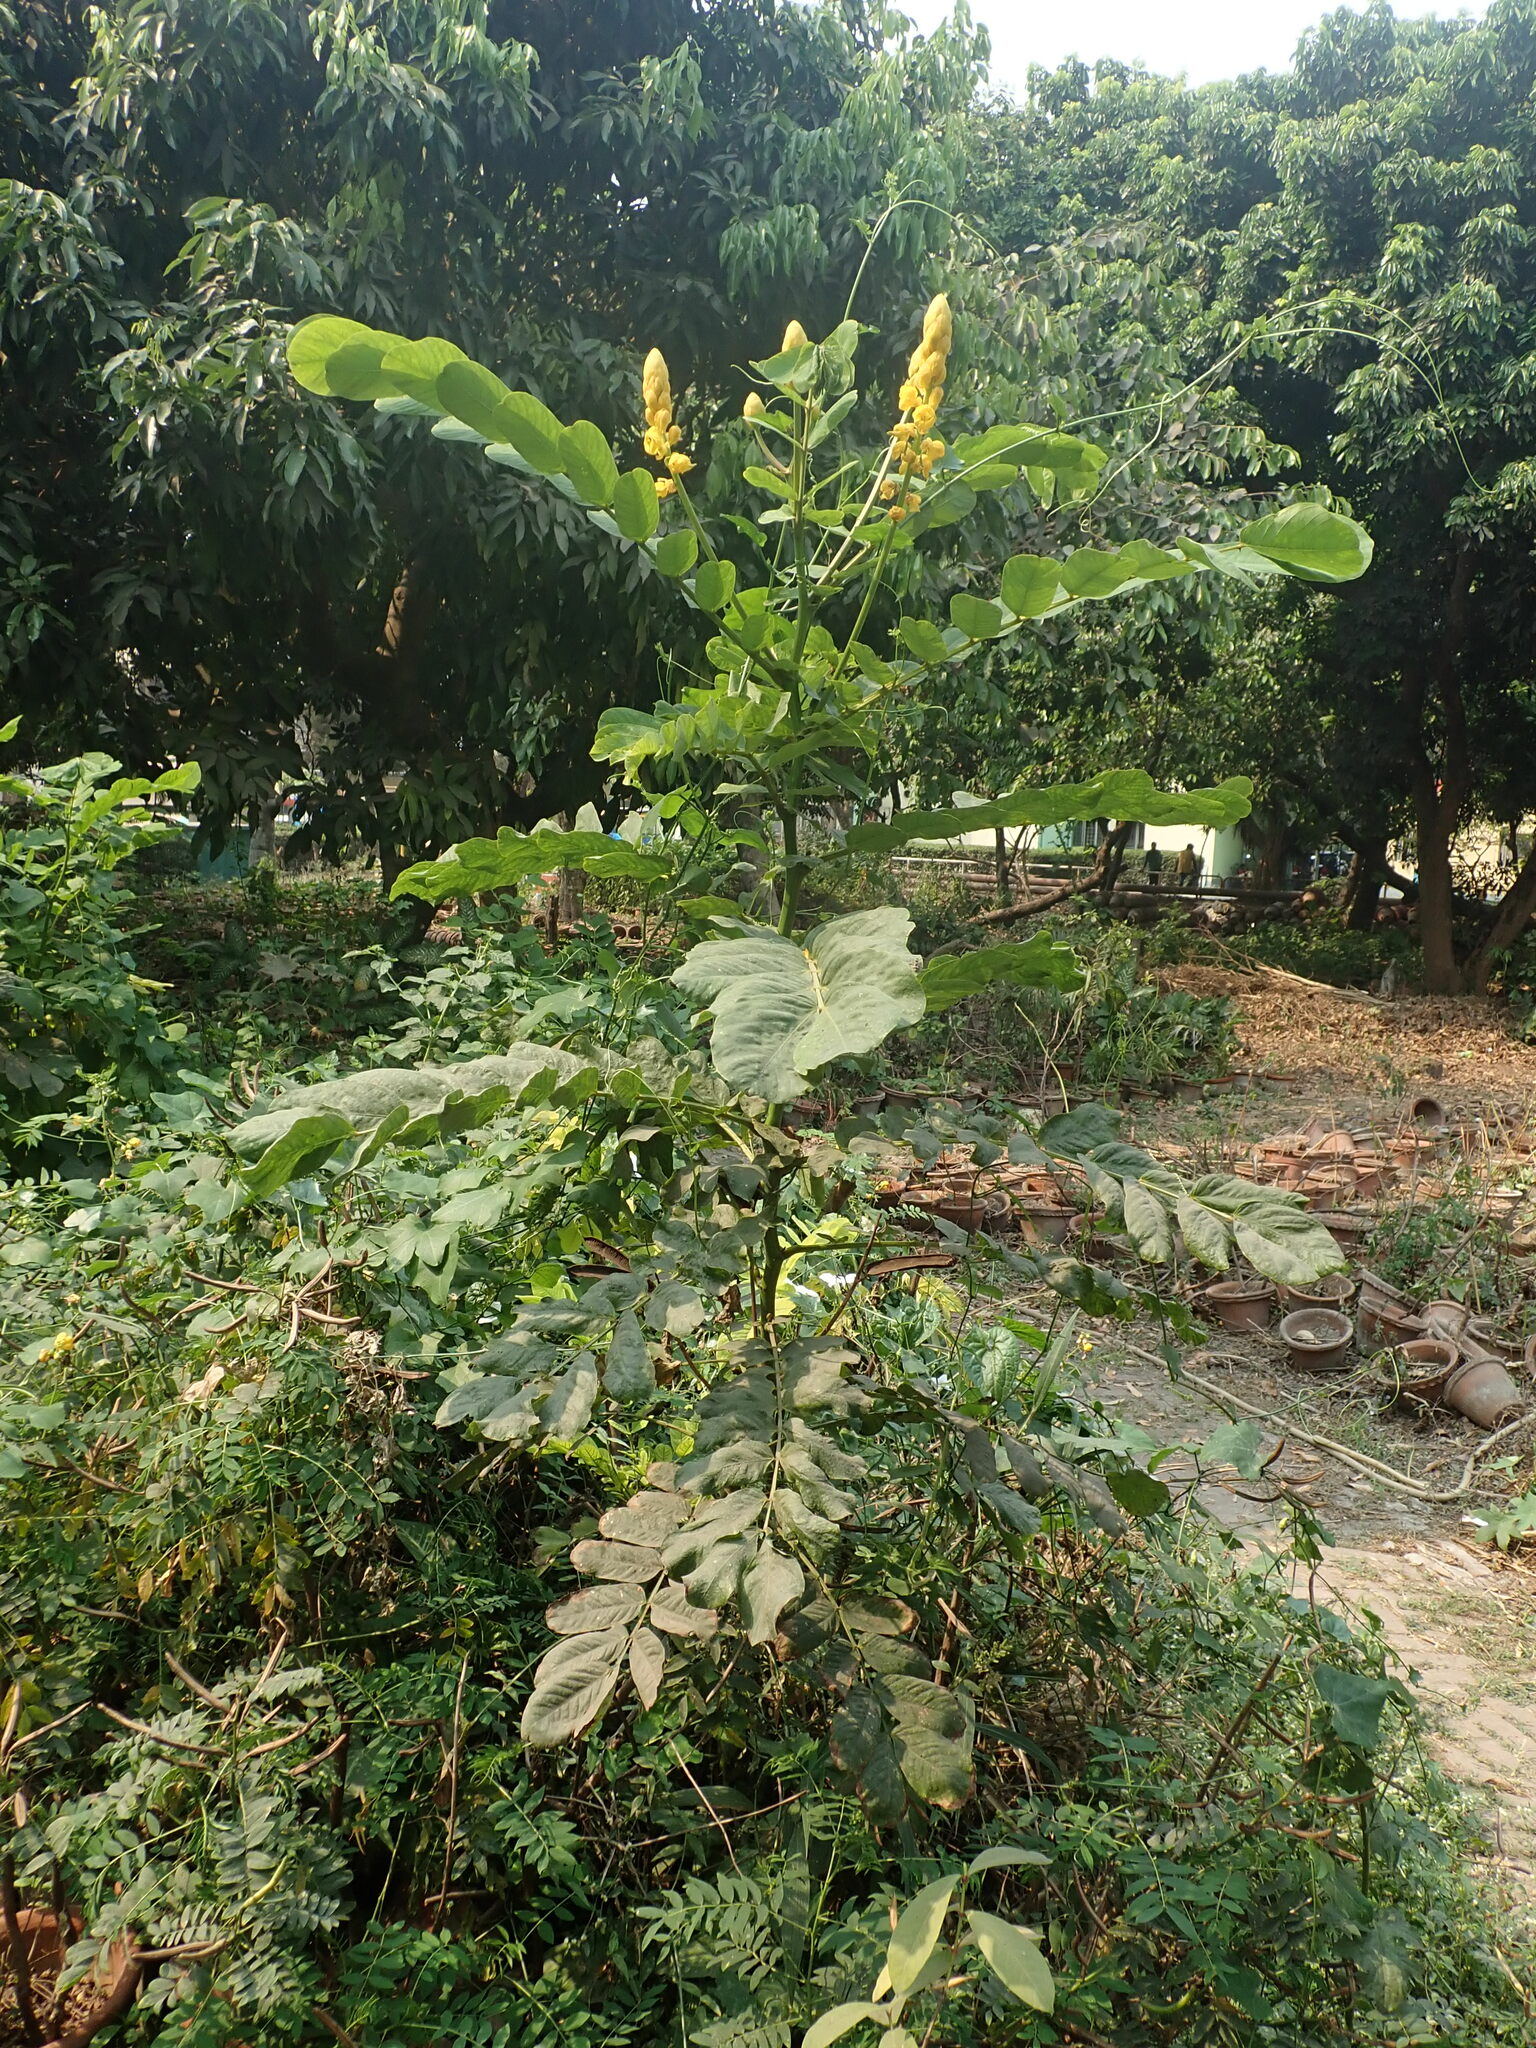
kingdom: Plantae
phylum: Tracheophyta
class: Magnoliopsida
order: Fabales
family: Fabaceae
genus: Senna
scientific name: Senna alata
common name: Emperor's candlesticks
